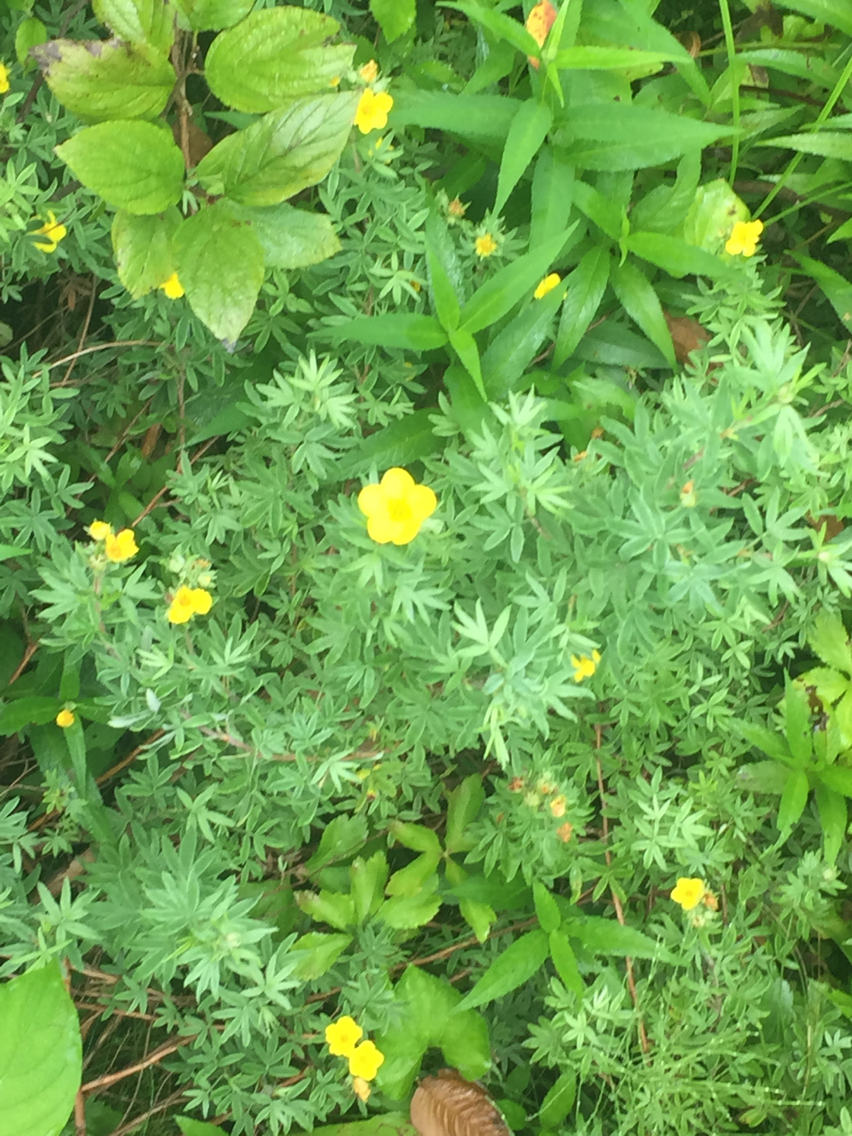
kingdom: Plantae
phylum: Tracheophyta
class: Magnoliopsida
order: Rosales
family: Rosaceae
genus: Dasiphora
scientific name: Dasiphora fruticosa
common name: Shrubby cinquefoil
